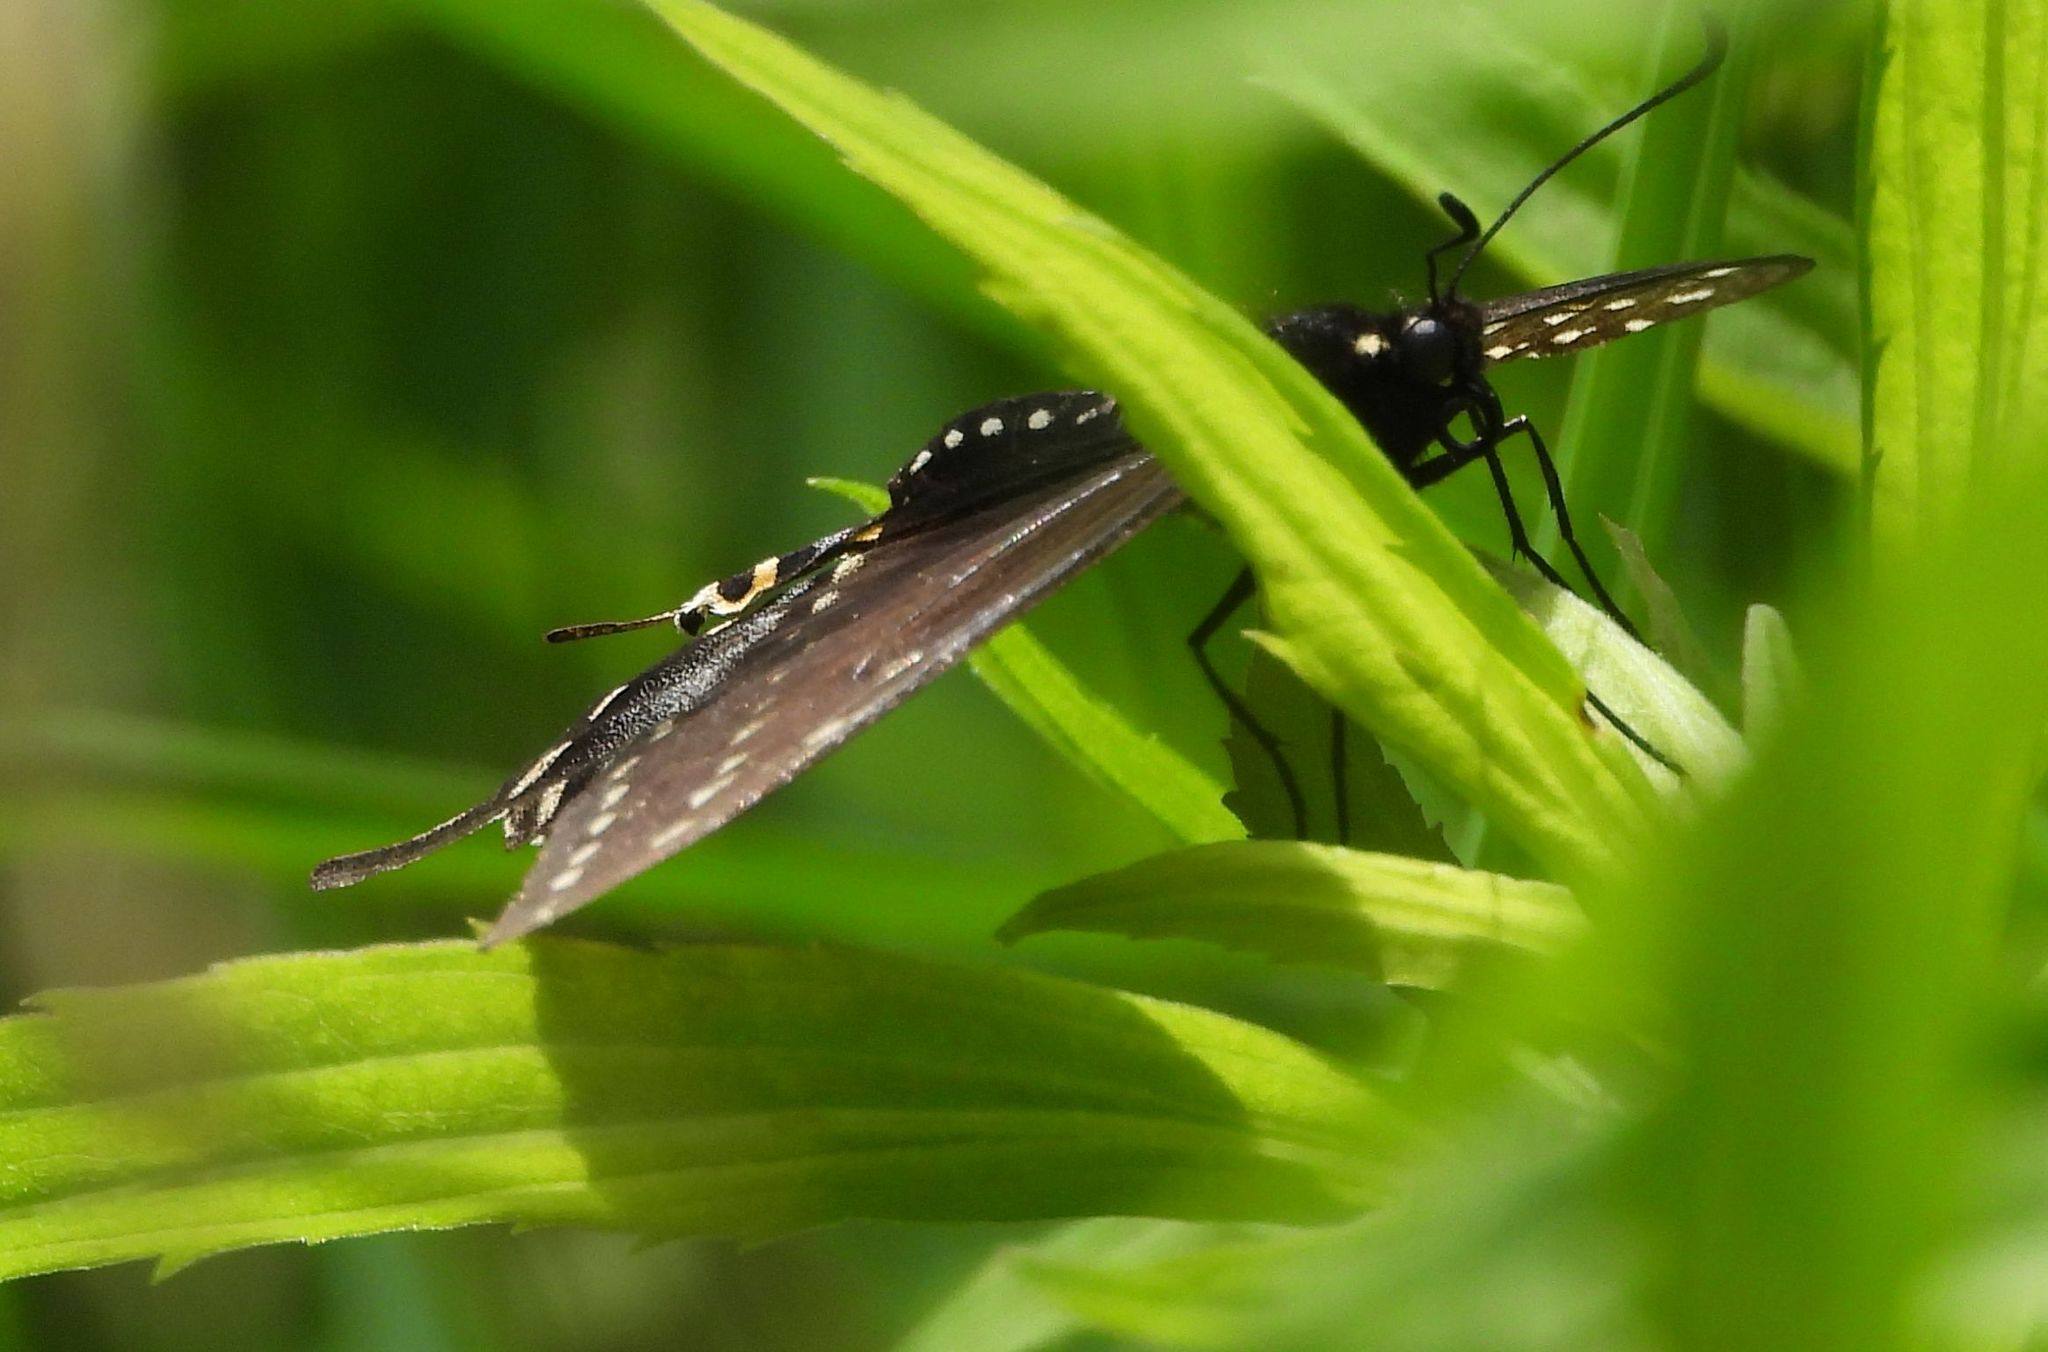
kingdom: Animalia
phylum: Arthropoda
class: Insecta
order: Lepidoptera
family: Papilionidae
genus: Papilio
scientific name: Papilio polyxenes
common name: Black swallowtail
